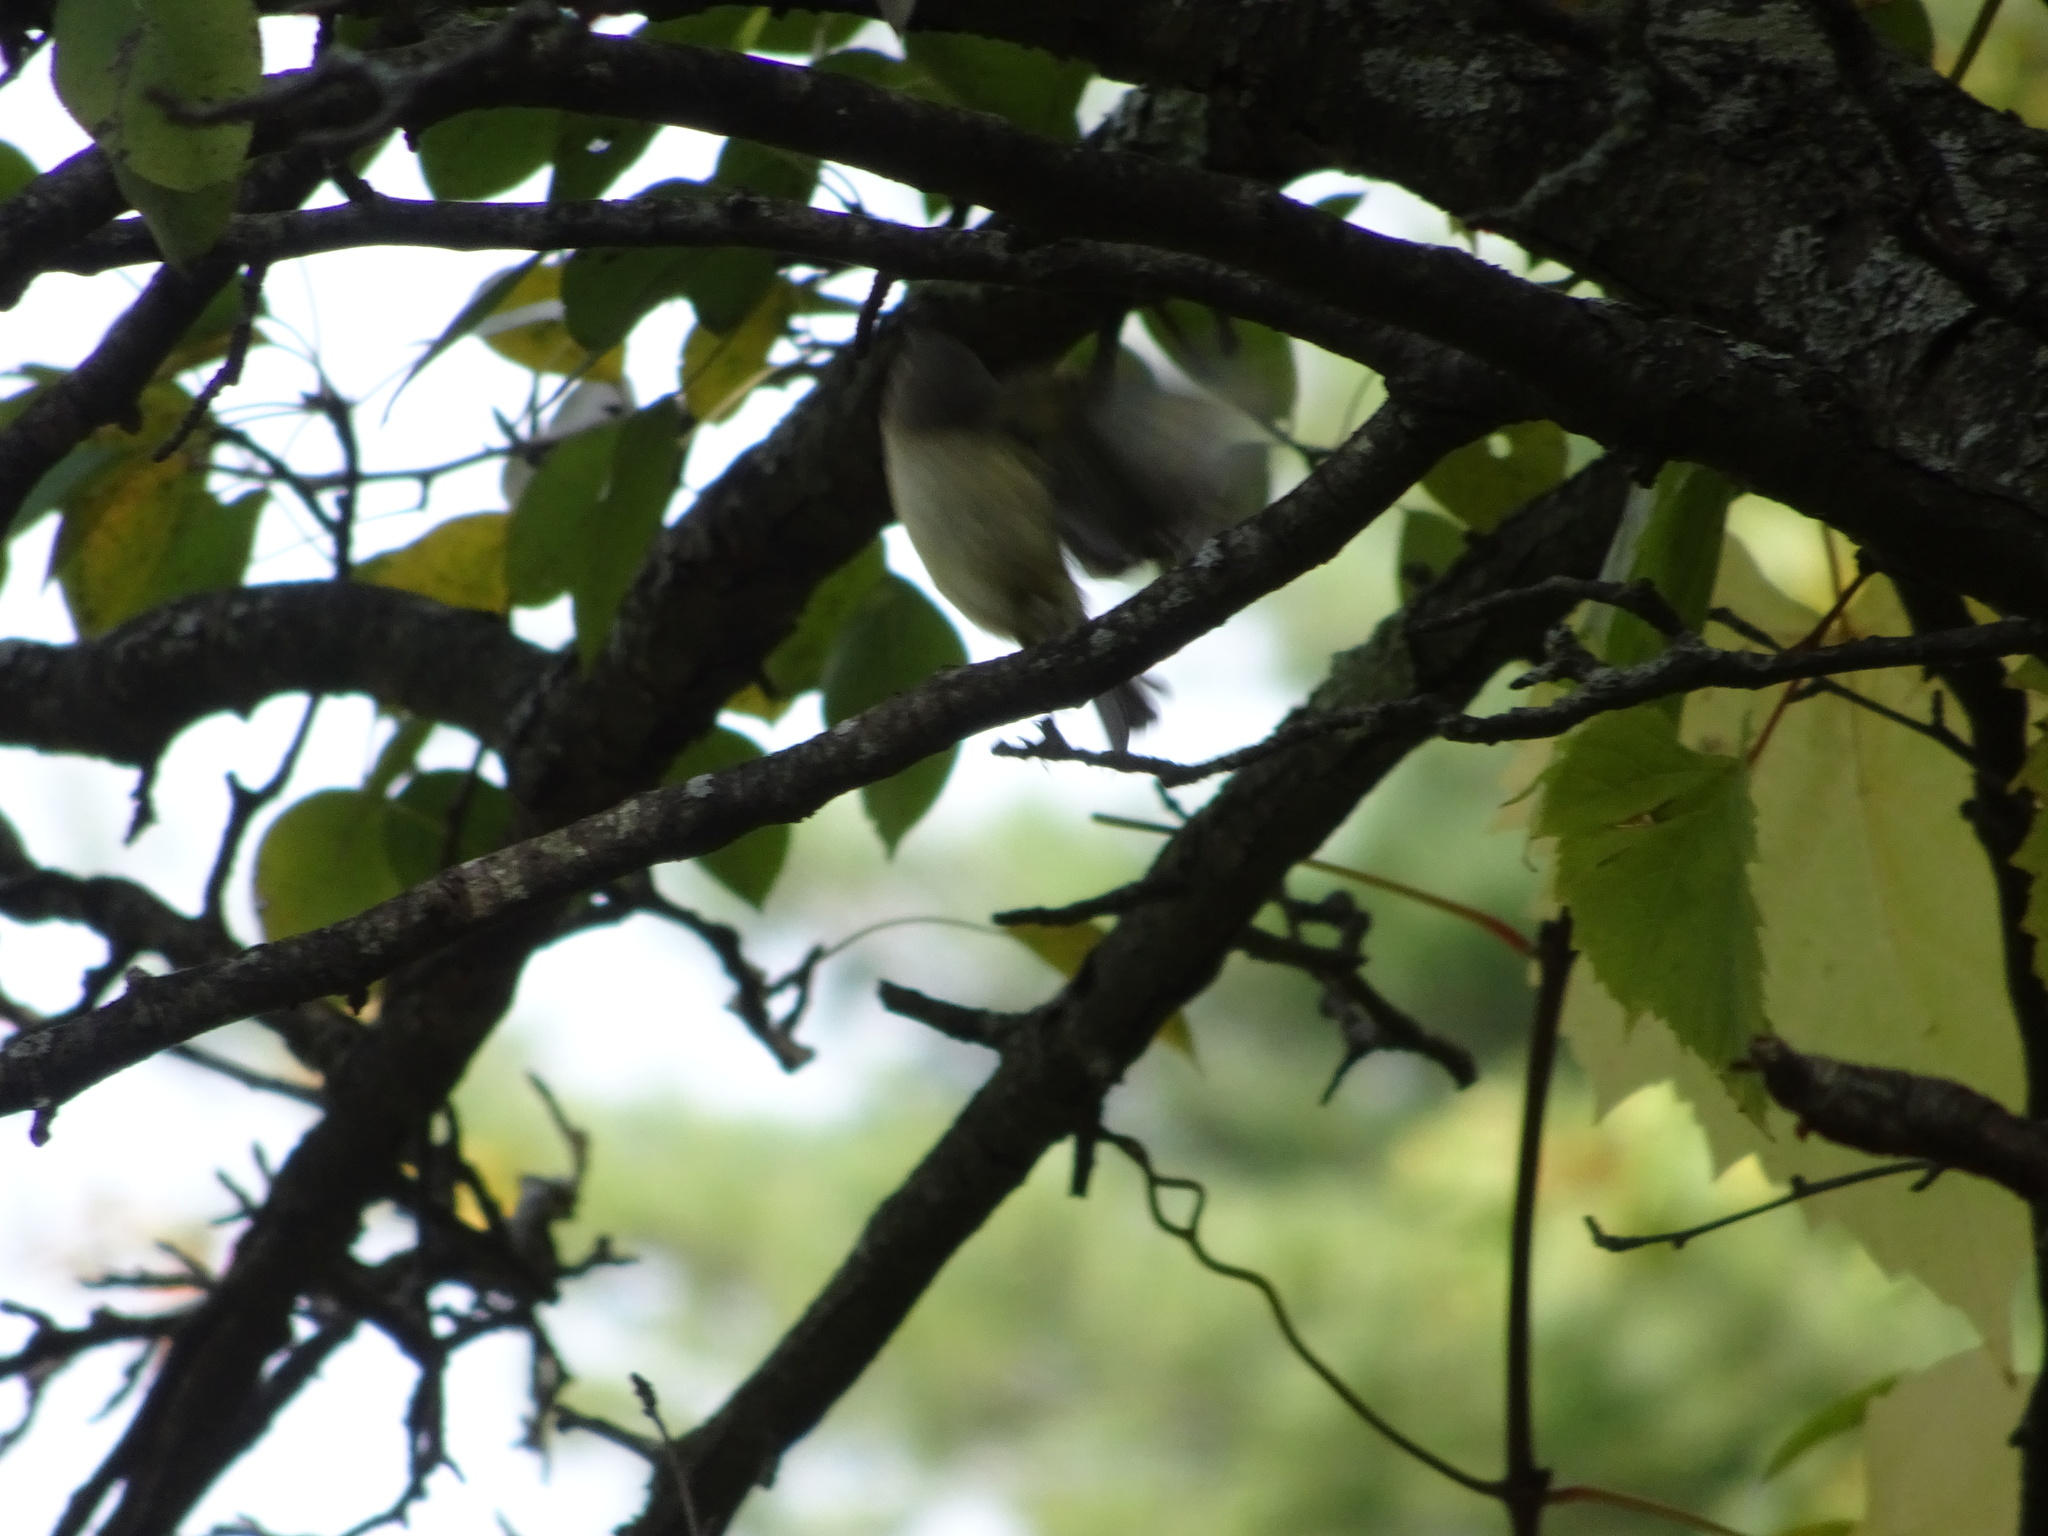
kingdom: Animalia
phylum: Chordata
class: Aves
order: Passeriformes
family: Regulidae
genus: Regulus
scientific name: Regulus calendula
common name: Ruby-crowned kinglet
